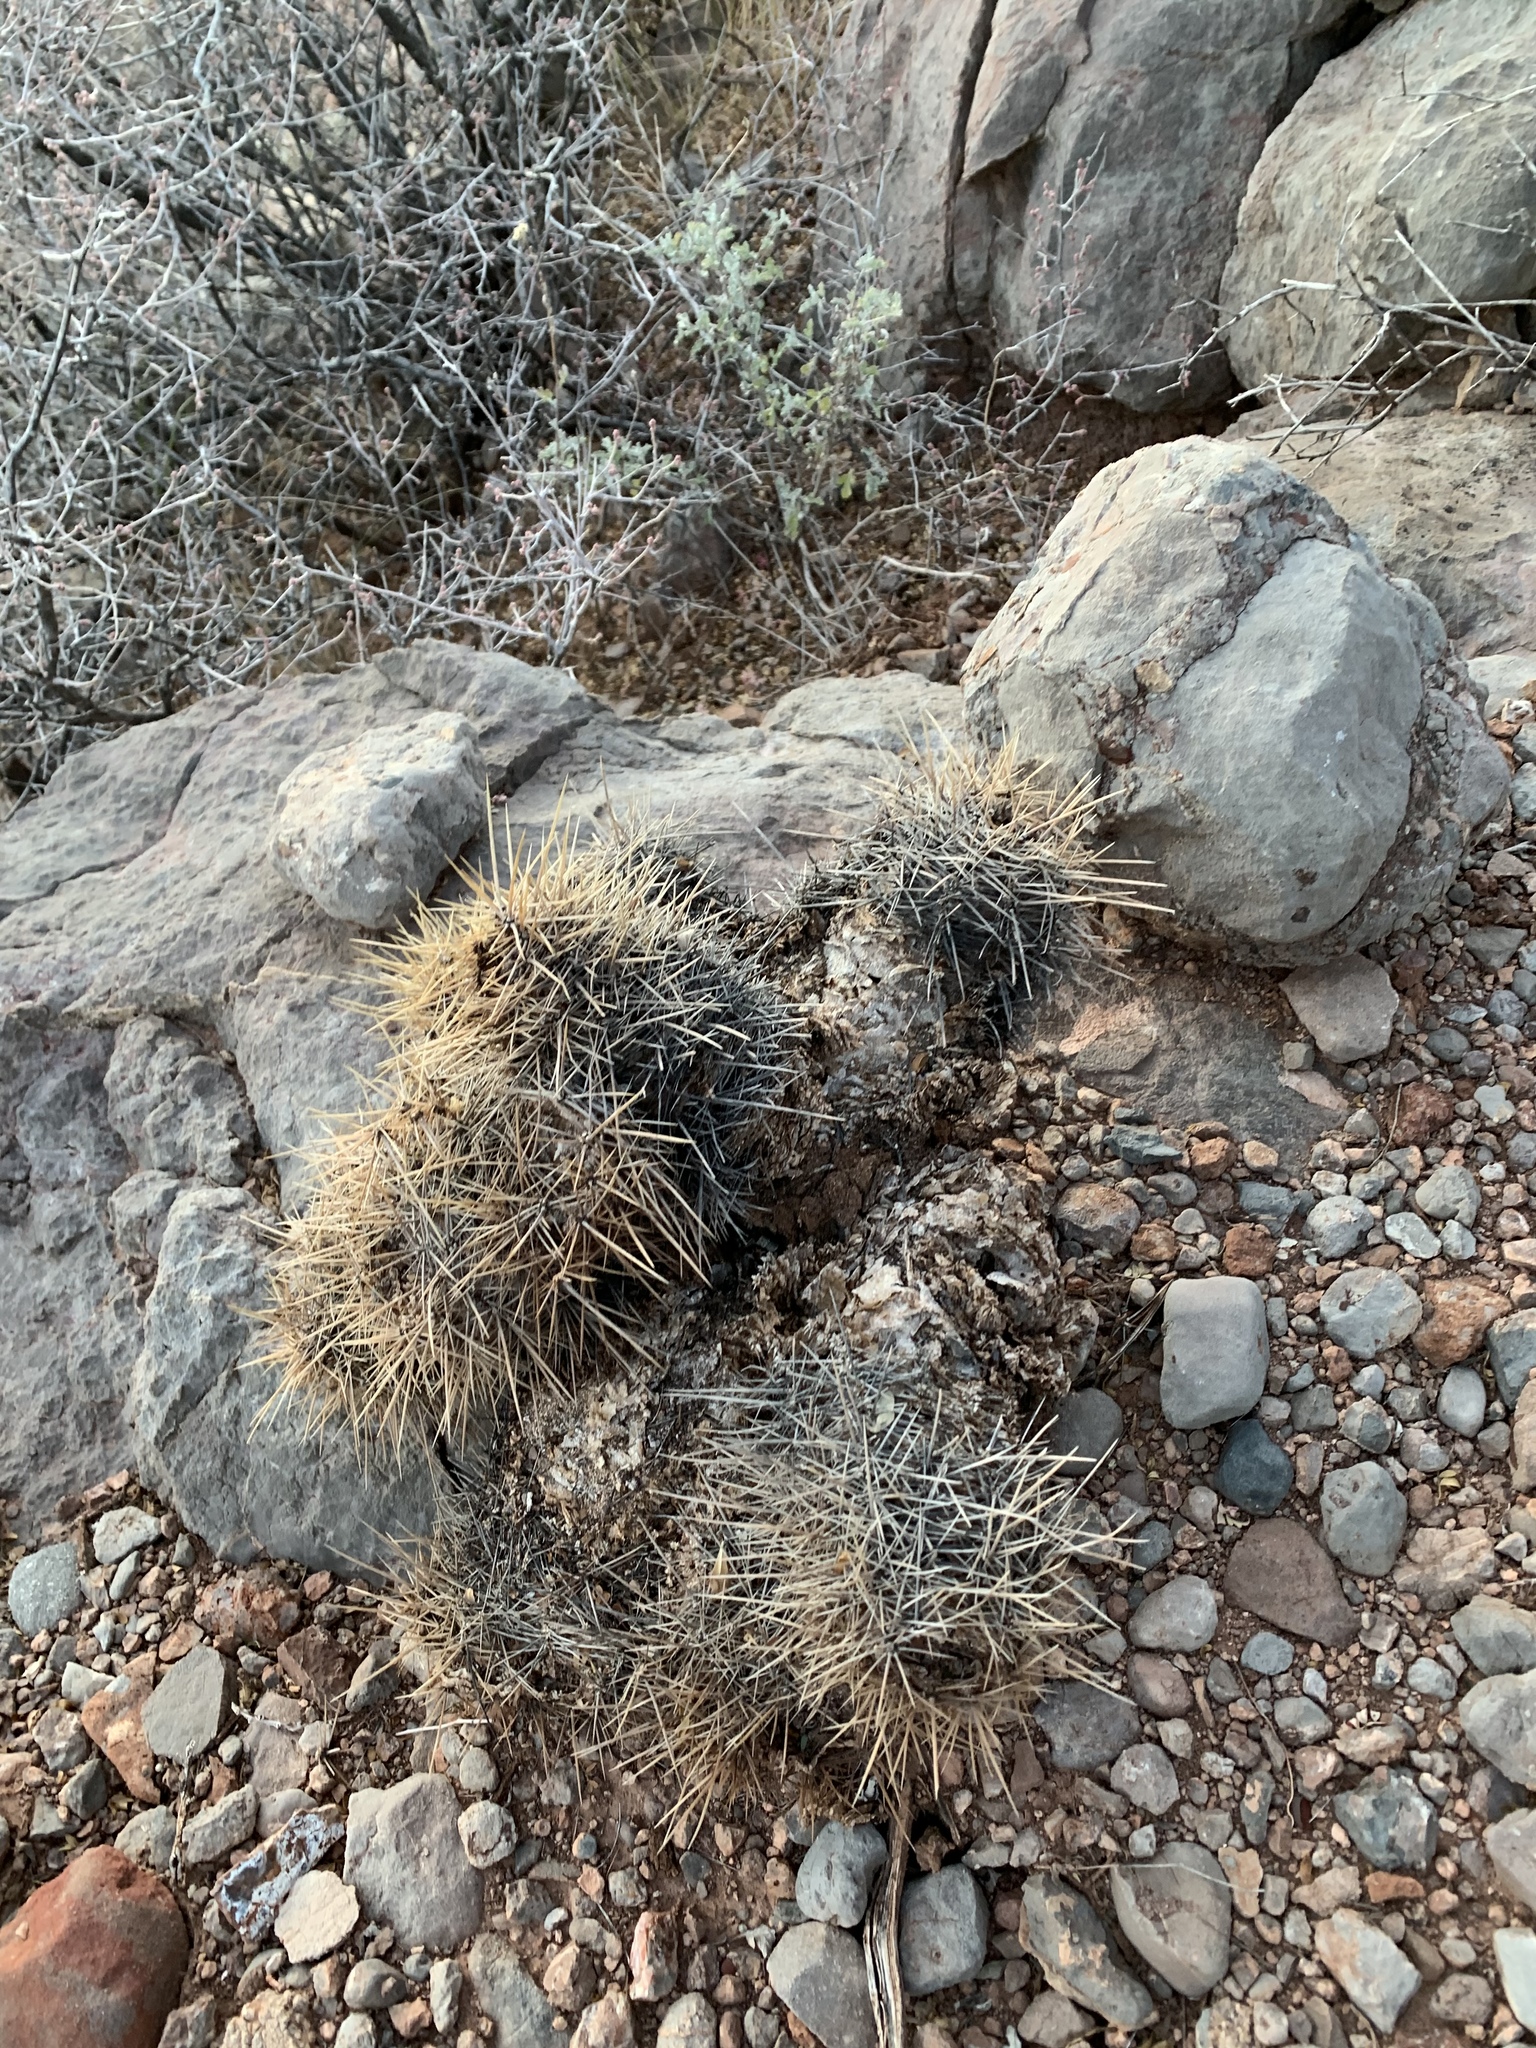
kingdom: Plantae
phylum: Tracheophyta
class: Magnoliopsida
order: Caryophyllales
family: Cactaceae
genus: Echinocereus
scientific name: Echinocereus coccineus
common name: Scarlet hedgehog cactus
